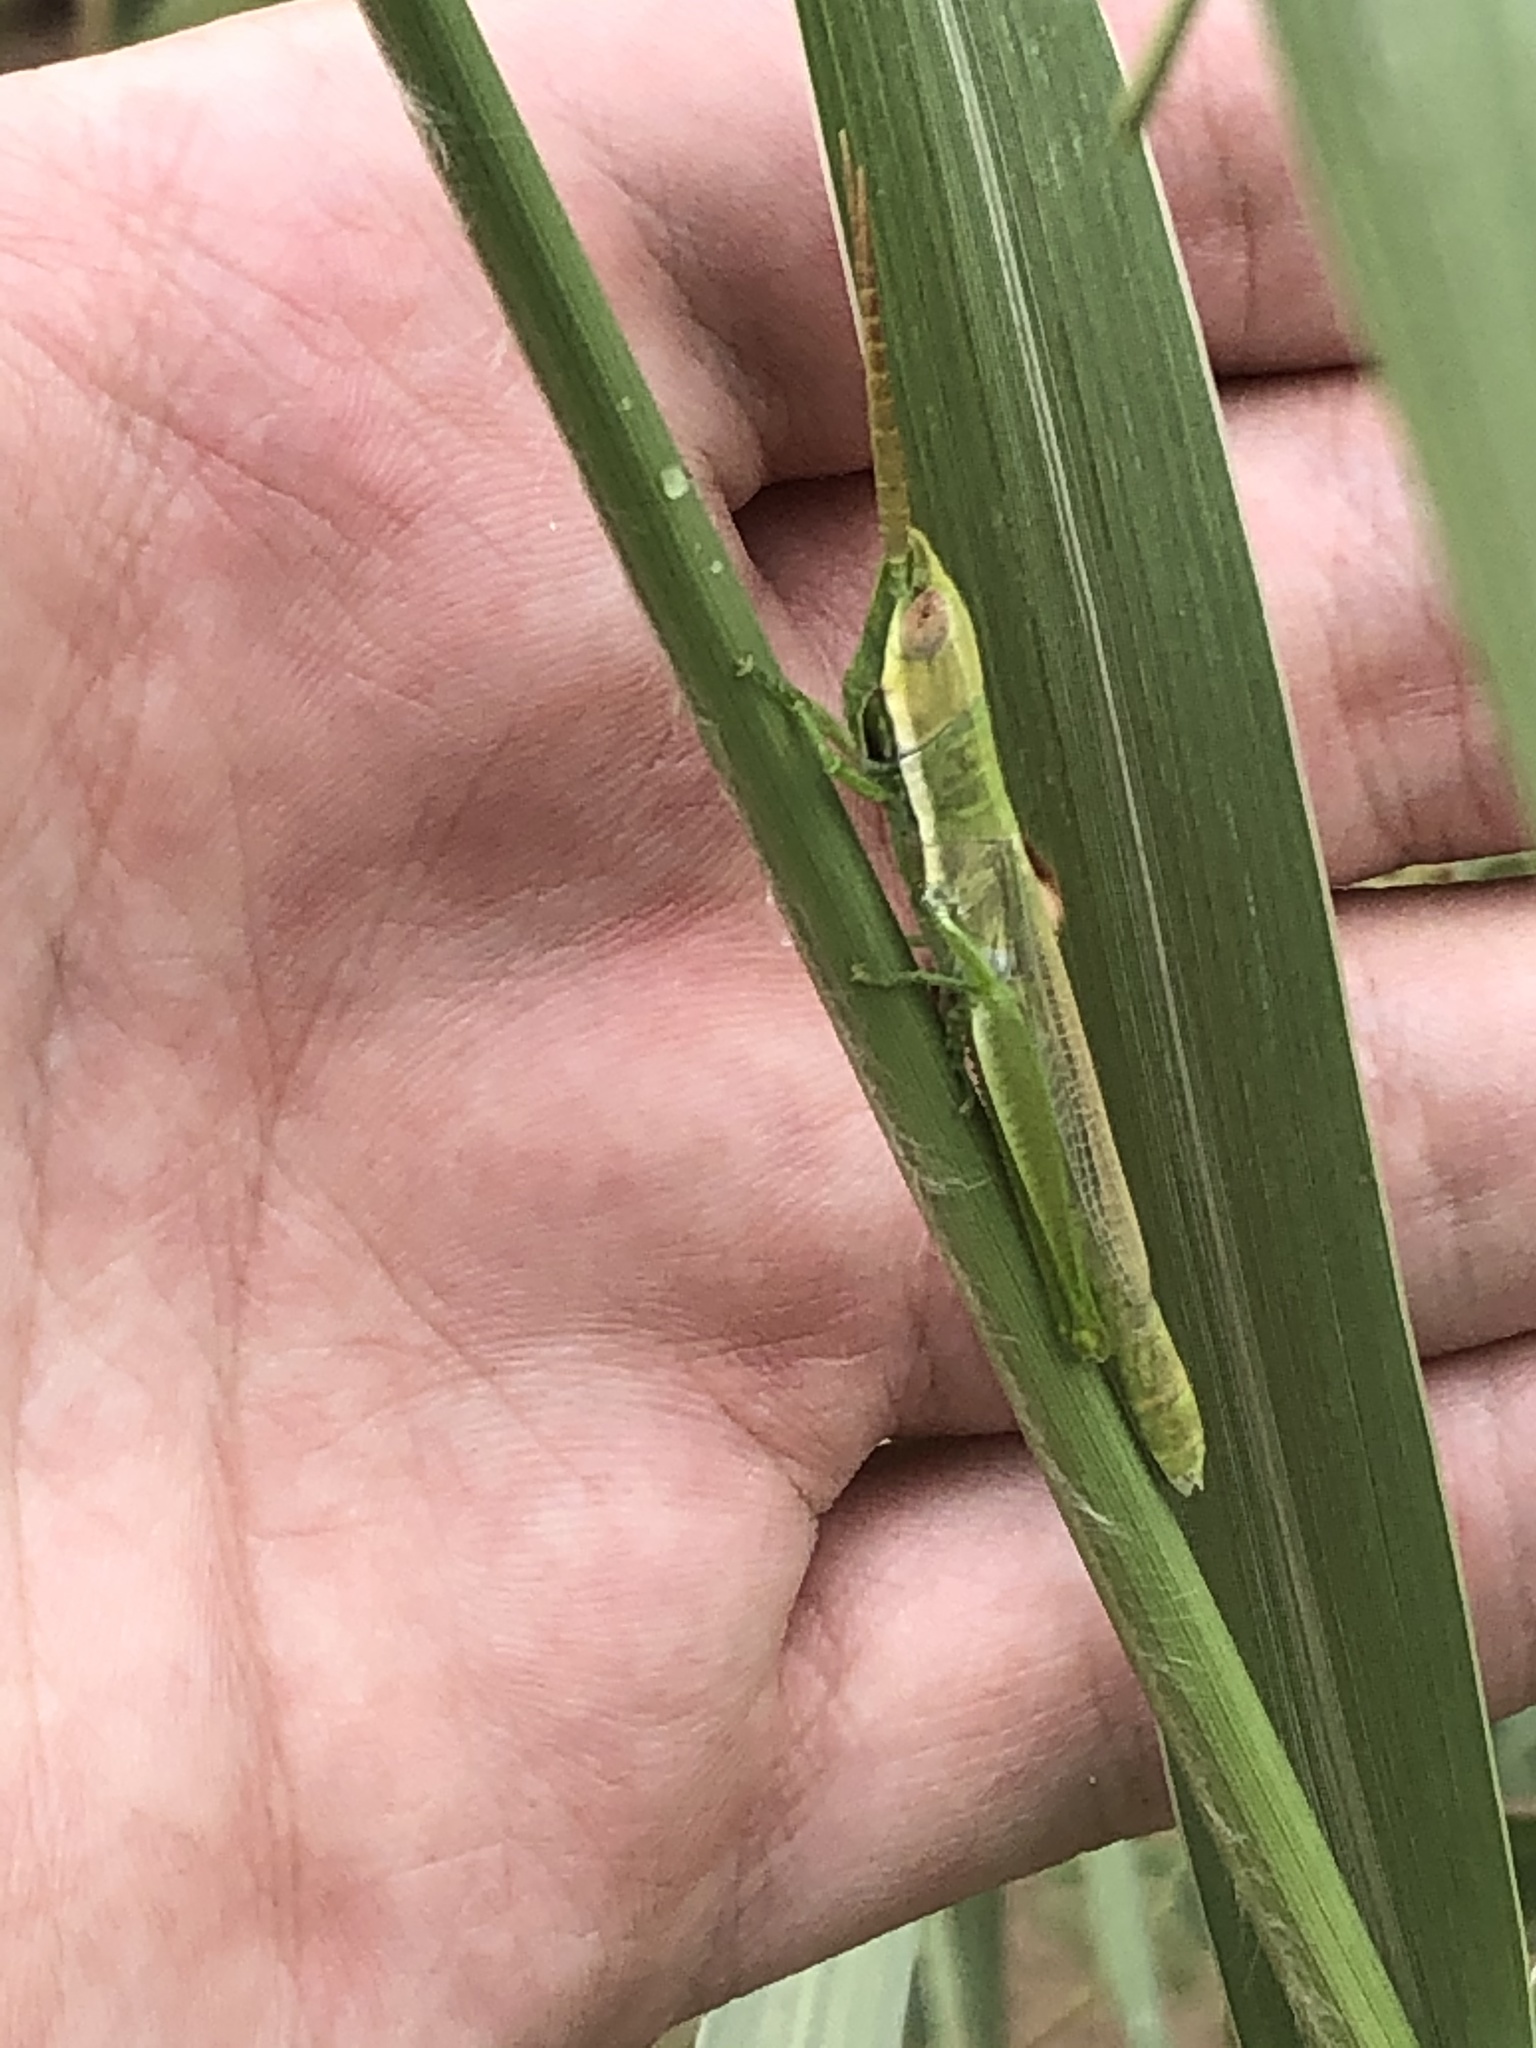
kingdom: Animalia
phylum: Arthropoda
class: Insecta
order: Orthoptera
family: Acrididae
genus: Paropomala
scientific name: Paropomala wyomingensis
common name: Wyoming toothpick grasshopper
